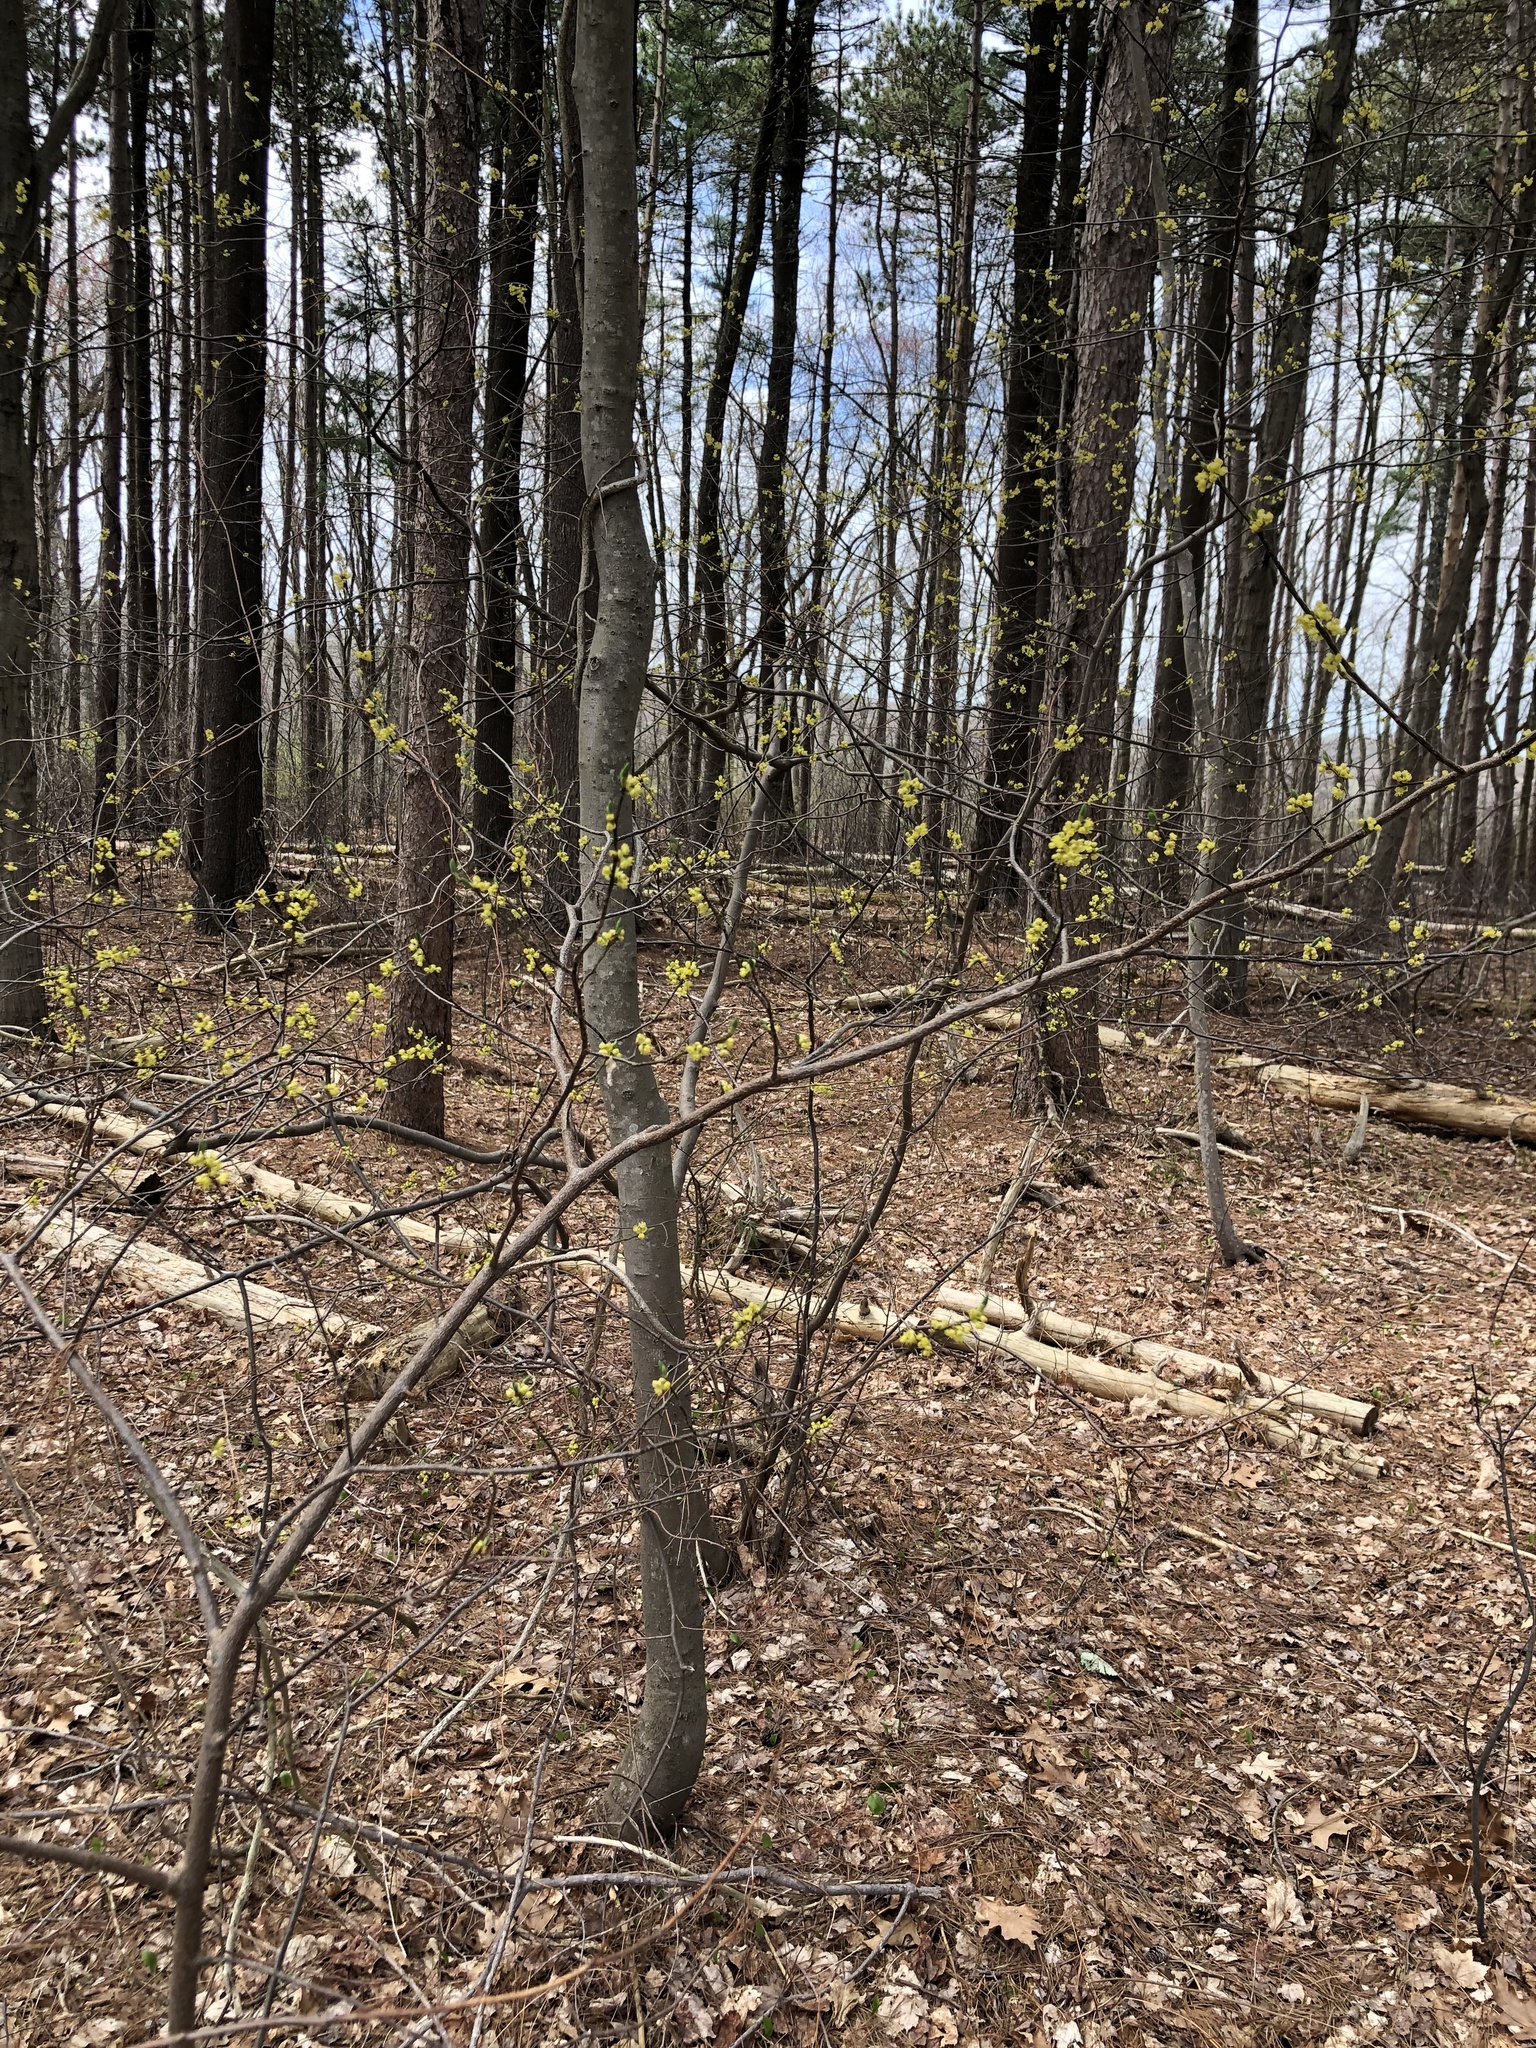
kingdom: Plantae
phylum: Tracheophyta
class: Magnoliopsida
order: Laurales
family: Lauraceae
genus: Lindera
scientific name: Lindera benzoin
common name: Spicebush
